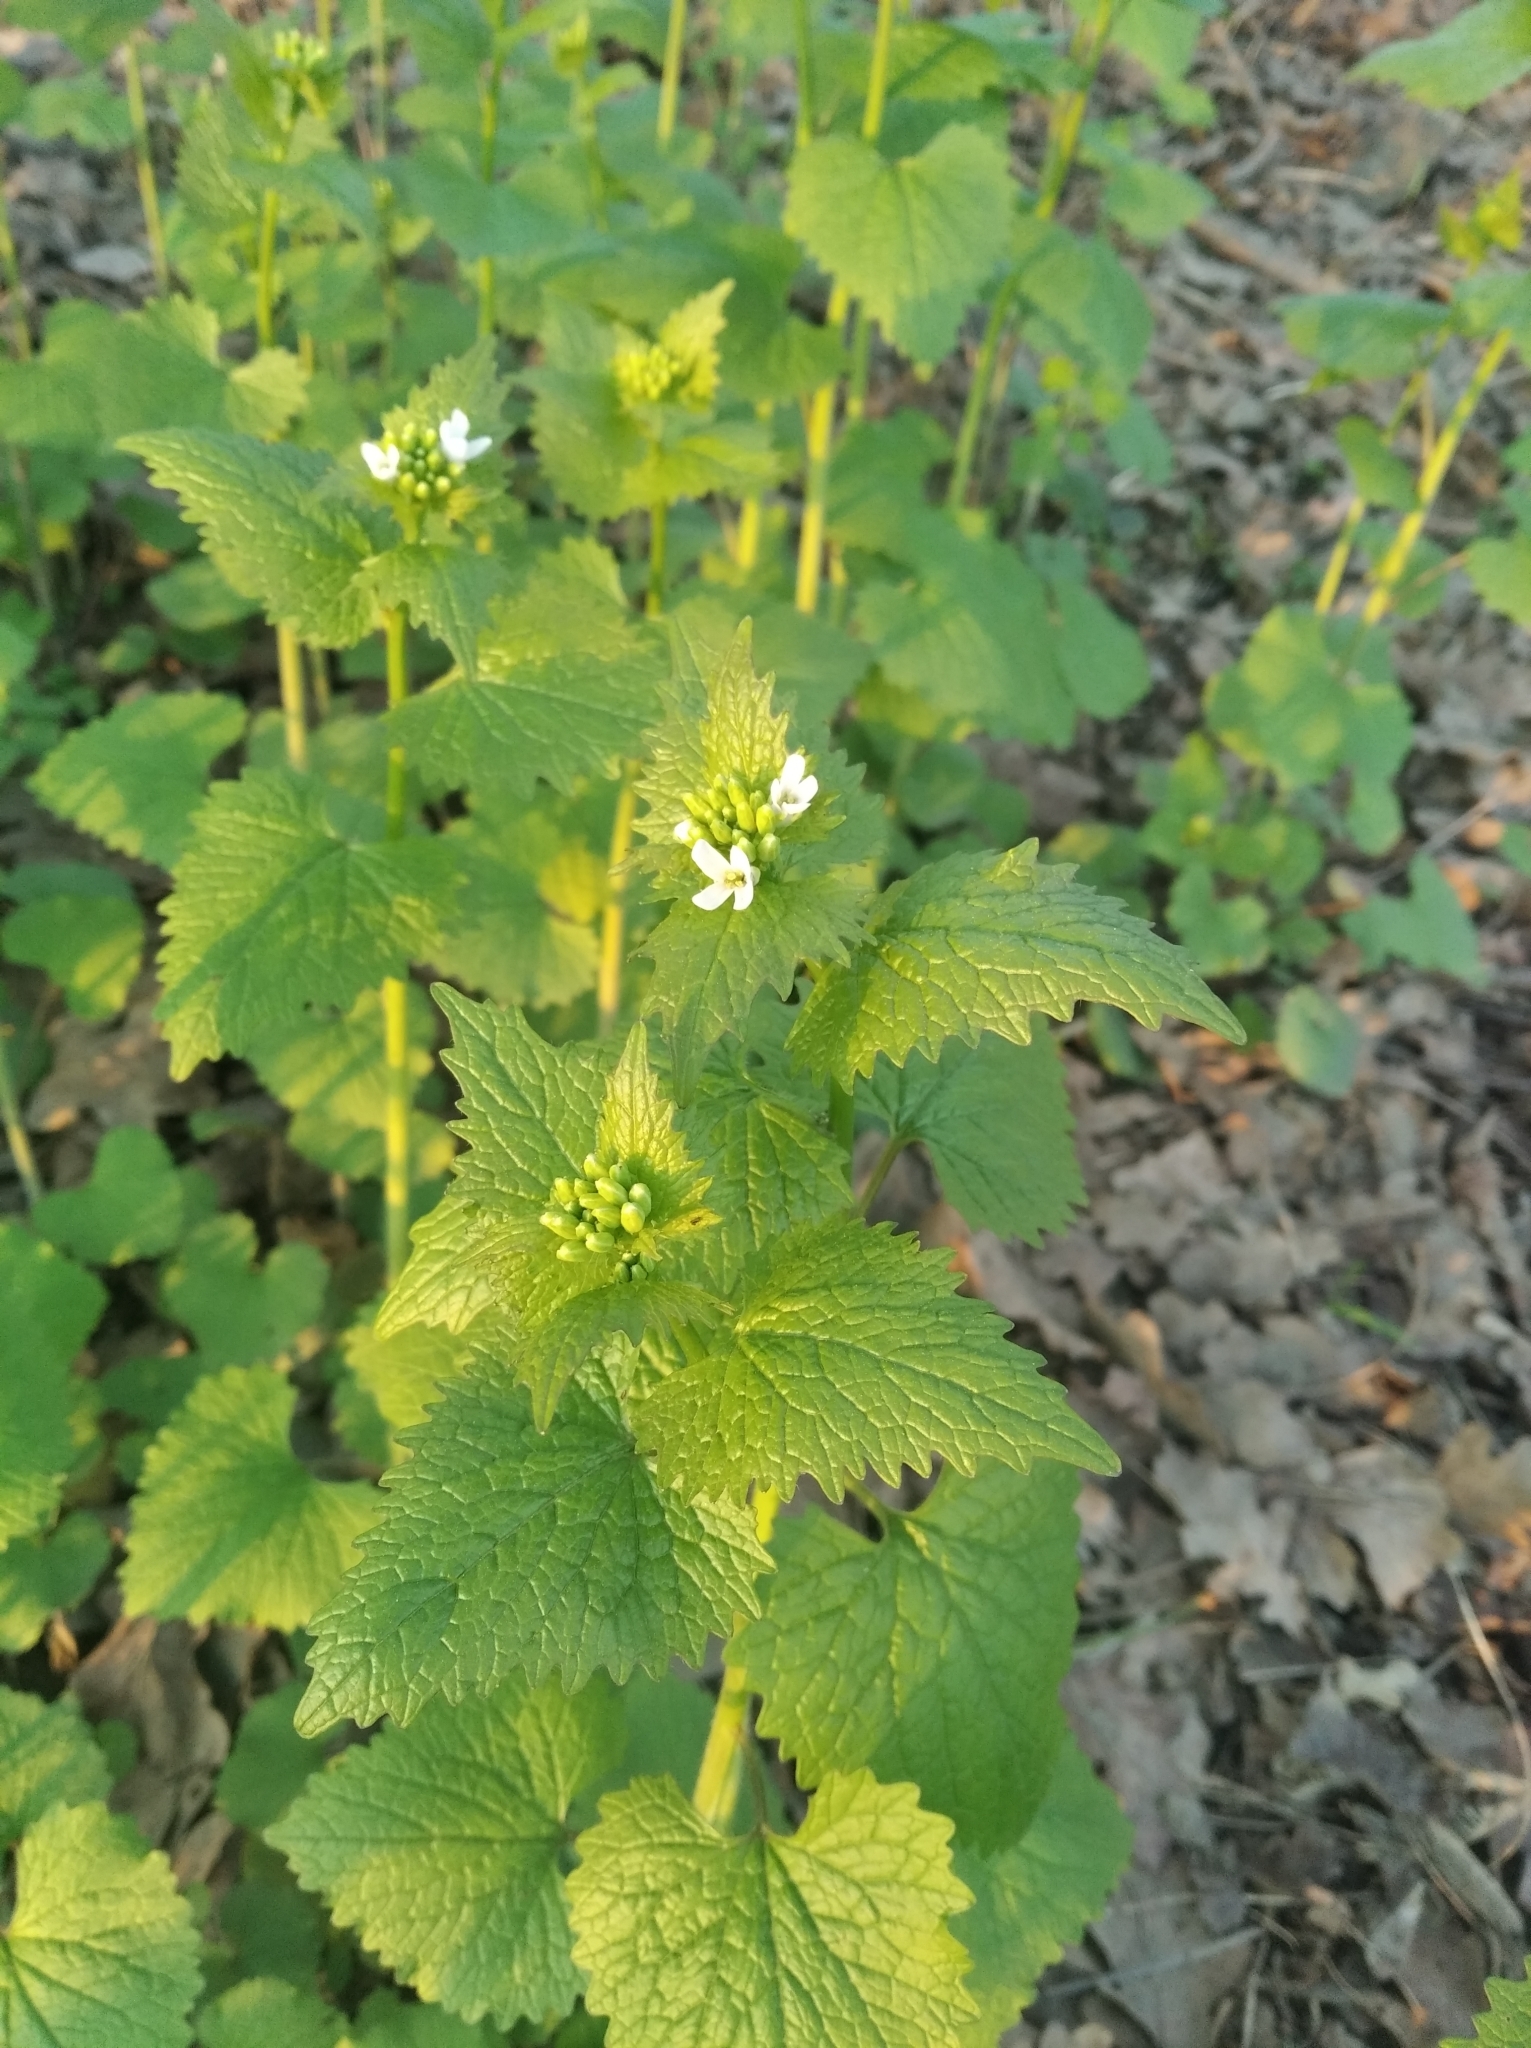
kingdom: Plantae
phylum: Tracheophyta
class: Magnoliopsida
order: Brassicales
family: Brassicaceae
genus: Alliaria
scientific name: Alliaria petiolata
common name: Garlic mustard
